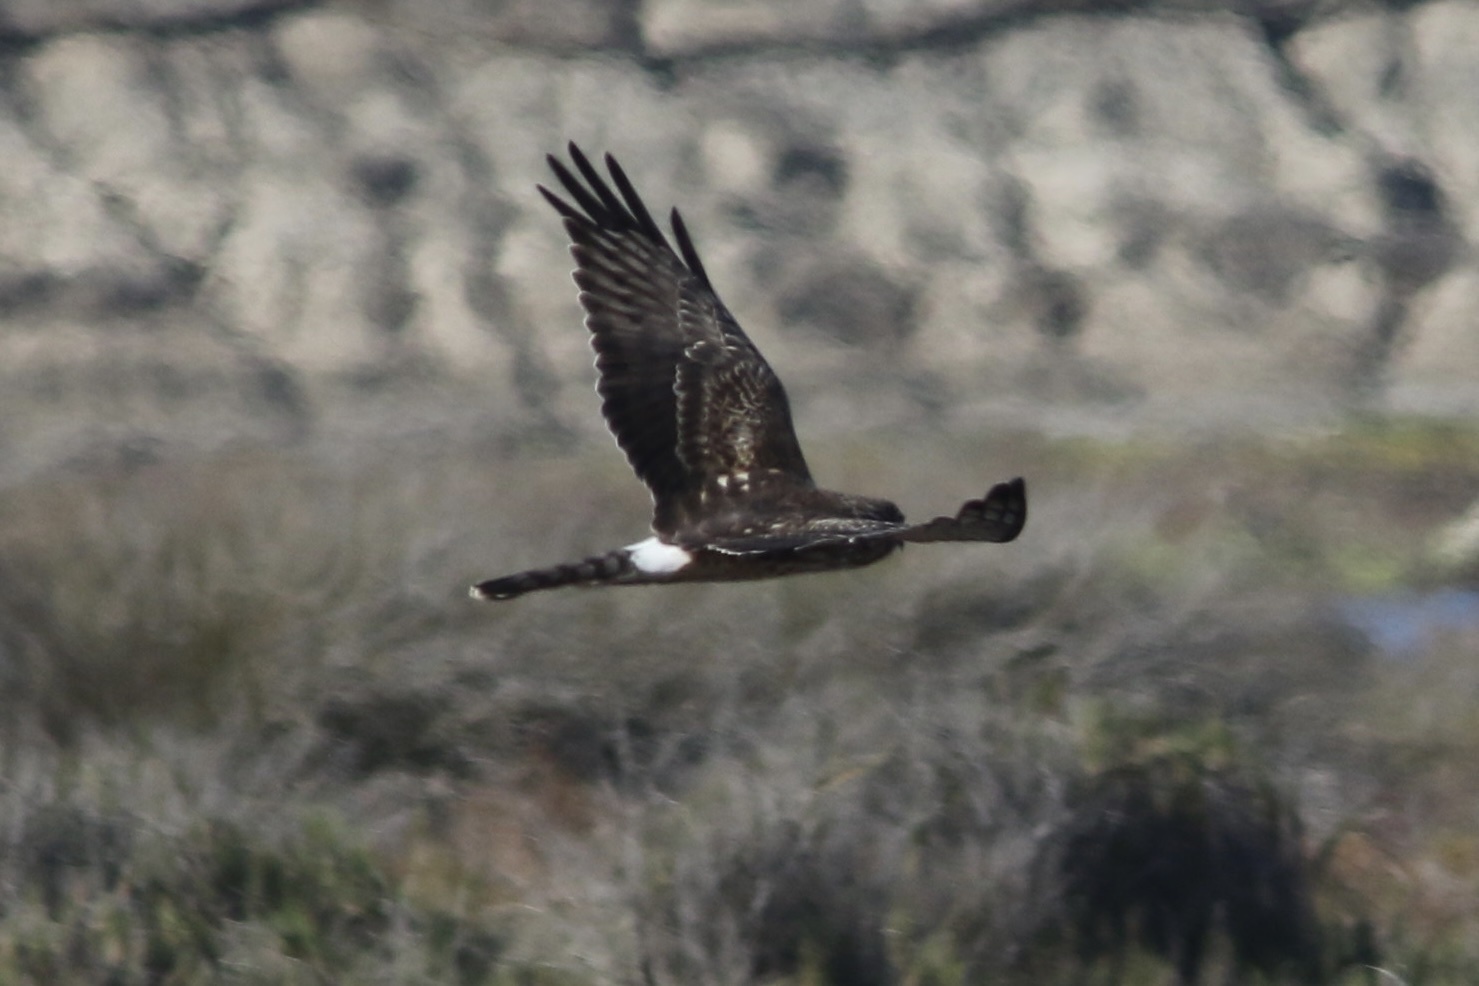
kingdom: Animalia
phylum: Chordata
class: Aves
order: Accipitriformes
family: Accipitridae
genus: Circus
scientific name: Circus cyaneus
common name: Hen harrier
